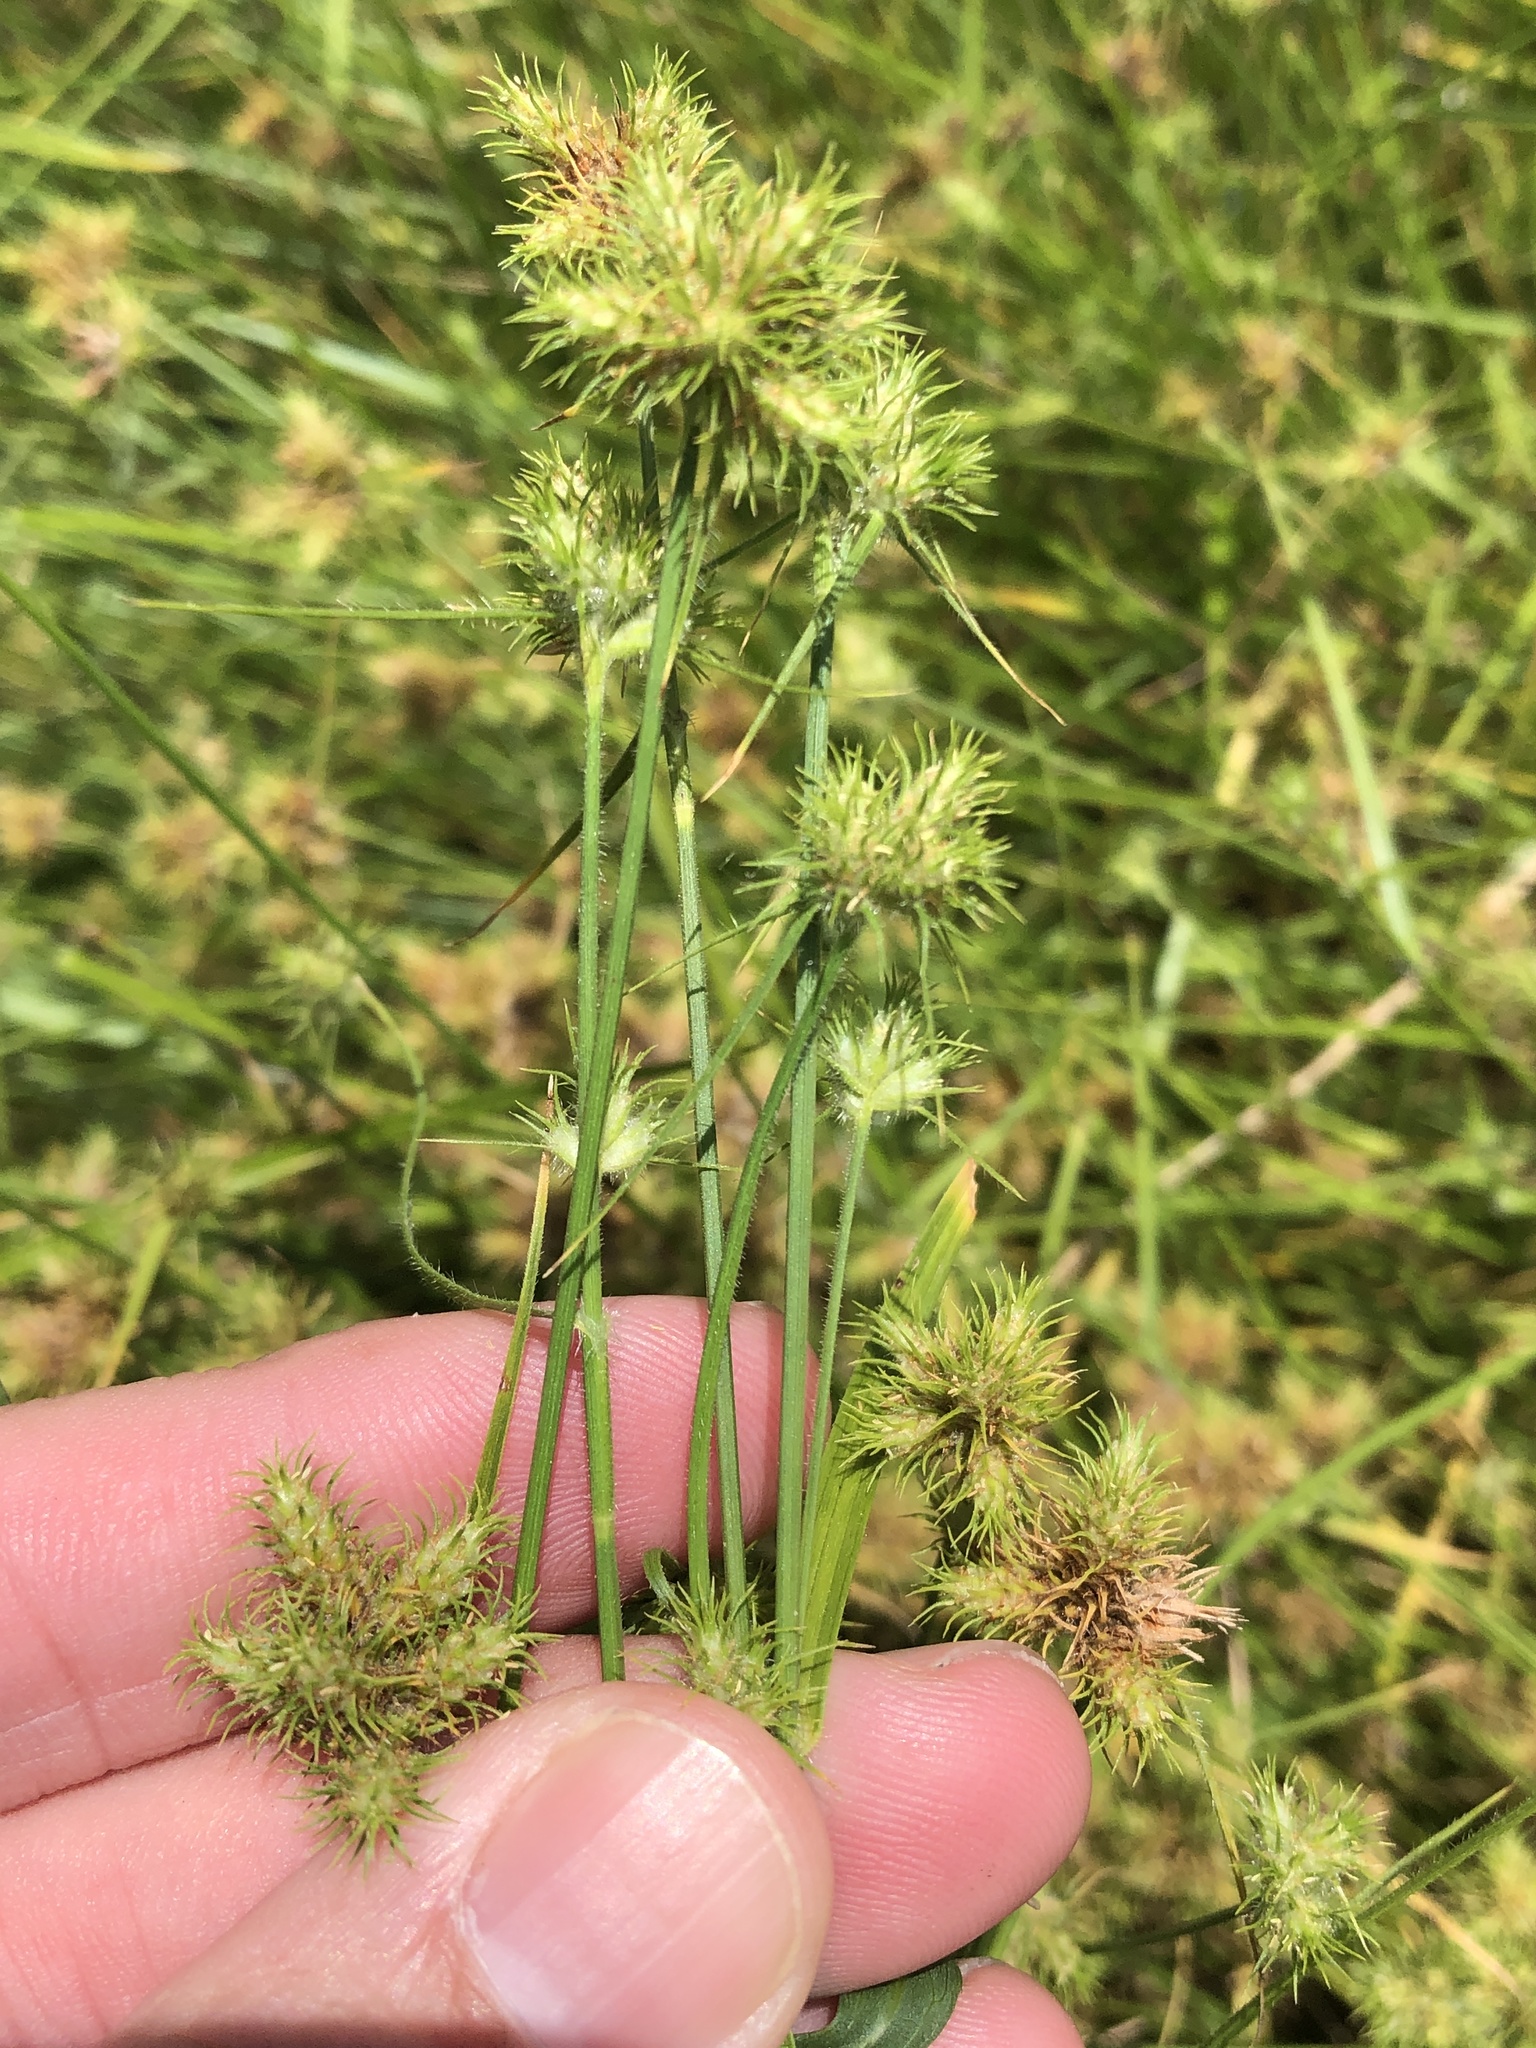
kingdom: Plantae
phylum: Tracheophyta
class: Liliopsida
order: Poales
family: Cyperaceae
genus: Fuirena
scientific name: Fuirena simplex
